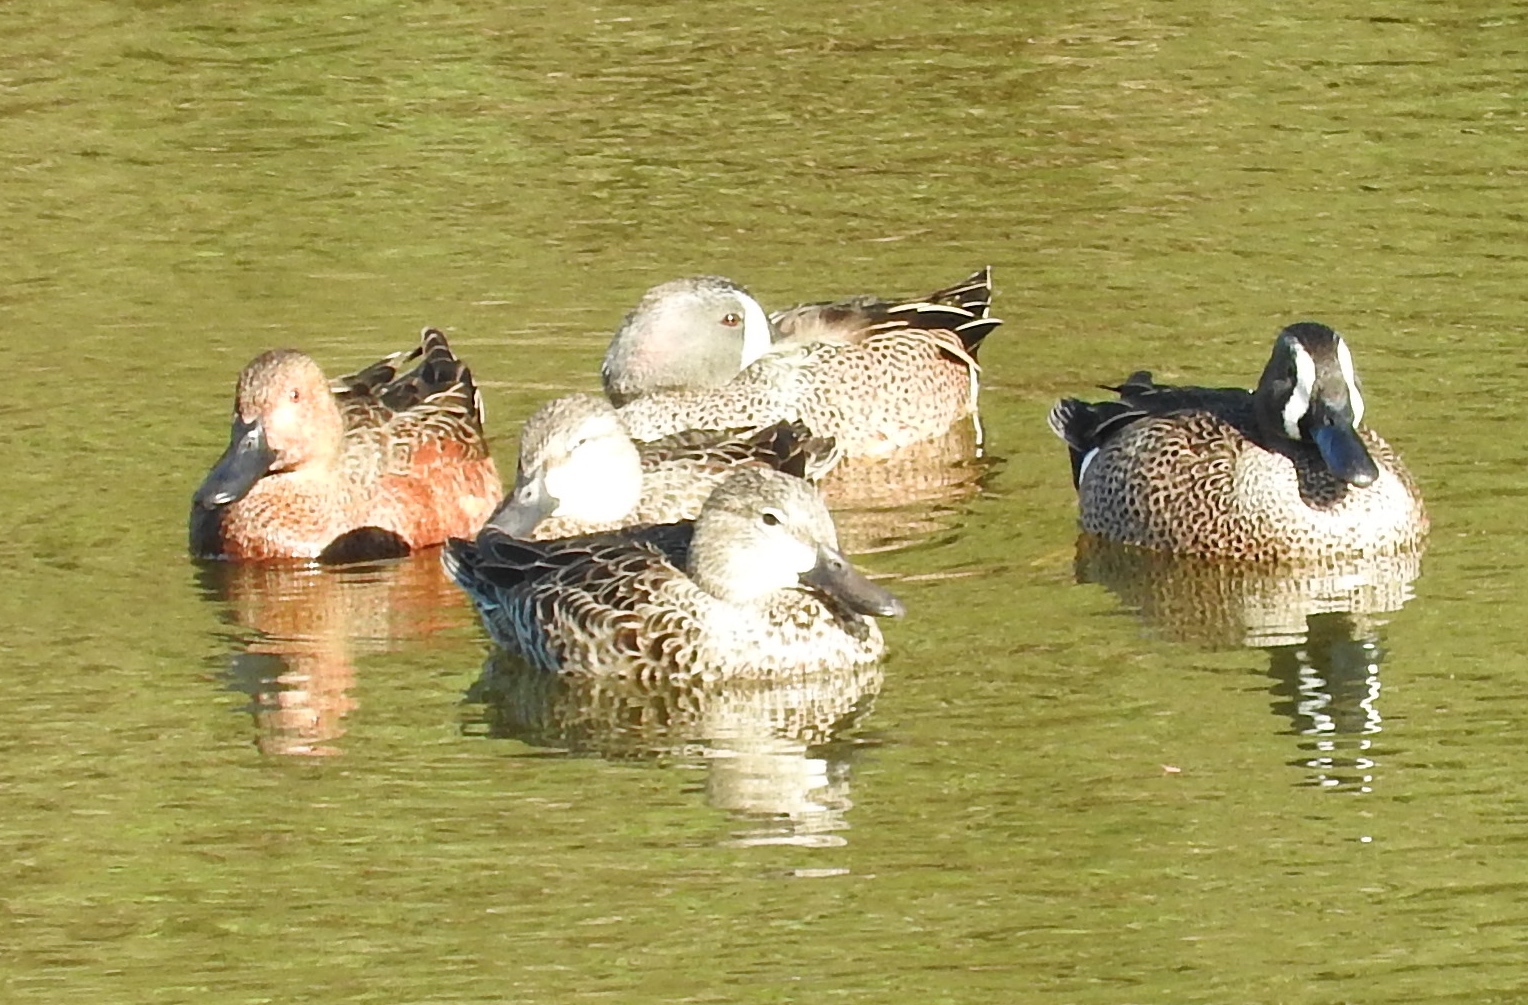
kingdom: Animalia
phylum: Chordata
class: Aves
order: Anseriformes
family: Anatidae
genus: Spatula
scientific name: Spatula discors
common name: Blue-winged teal
